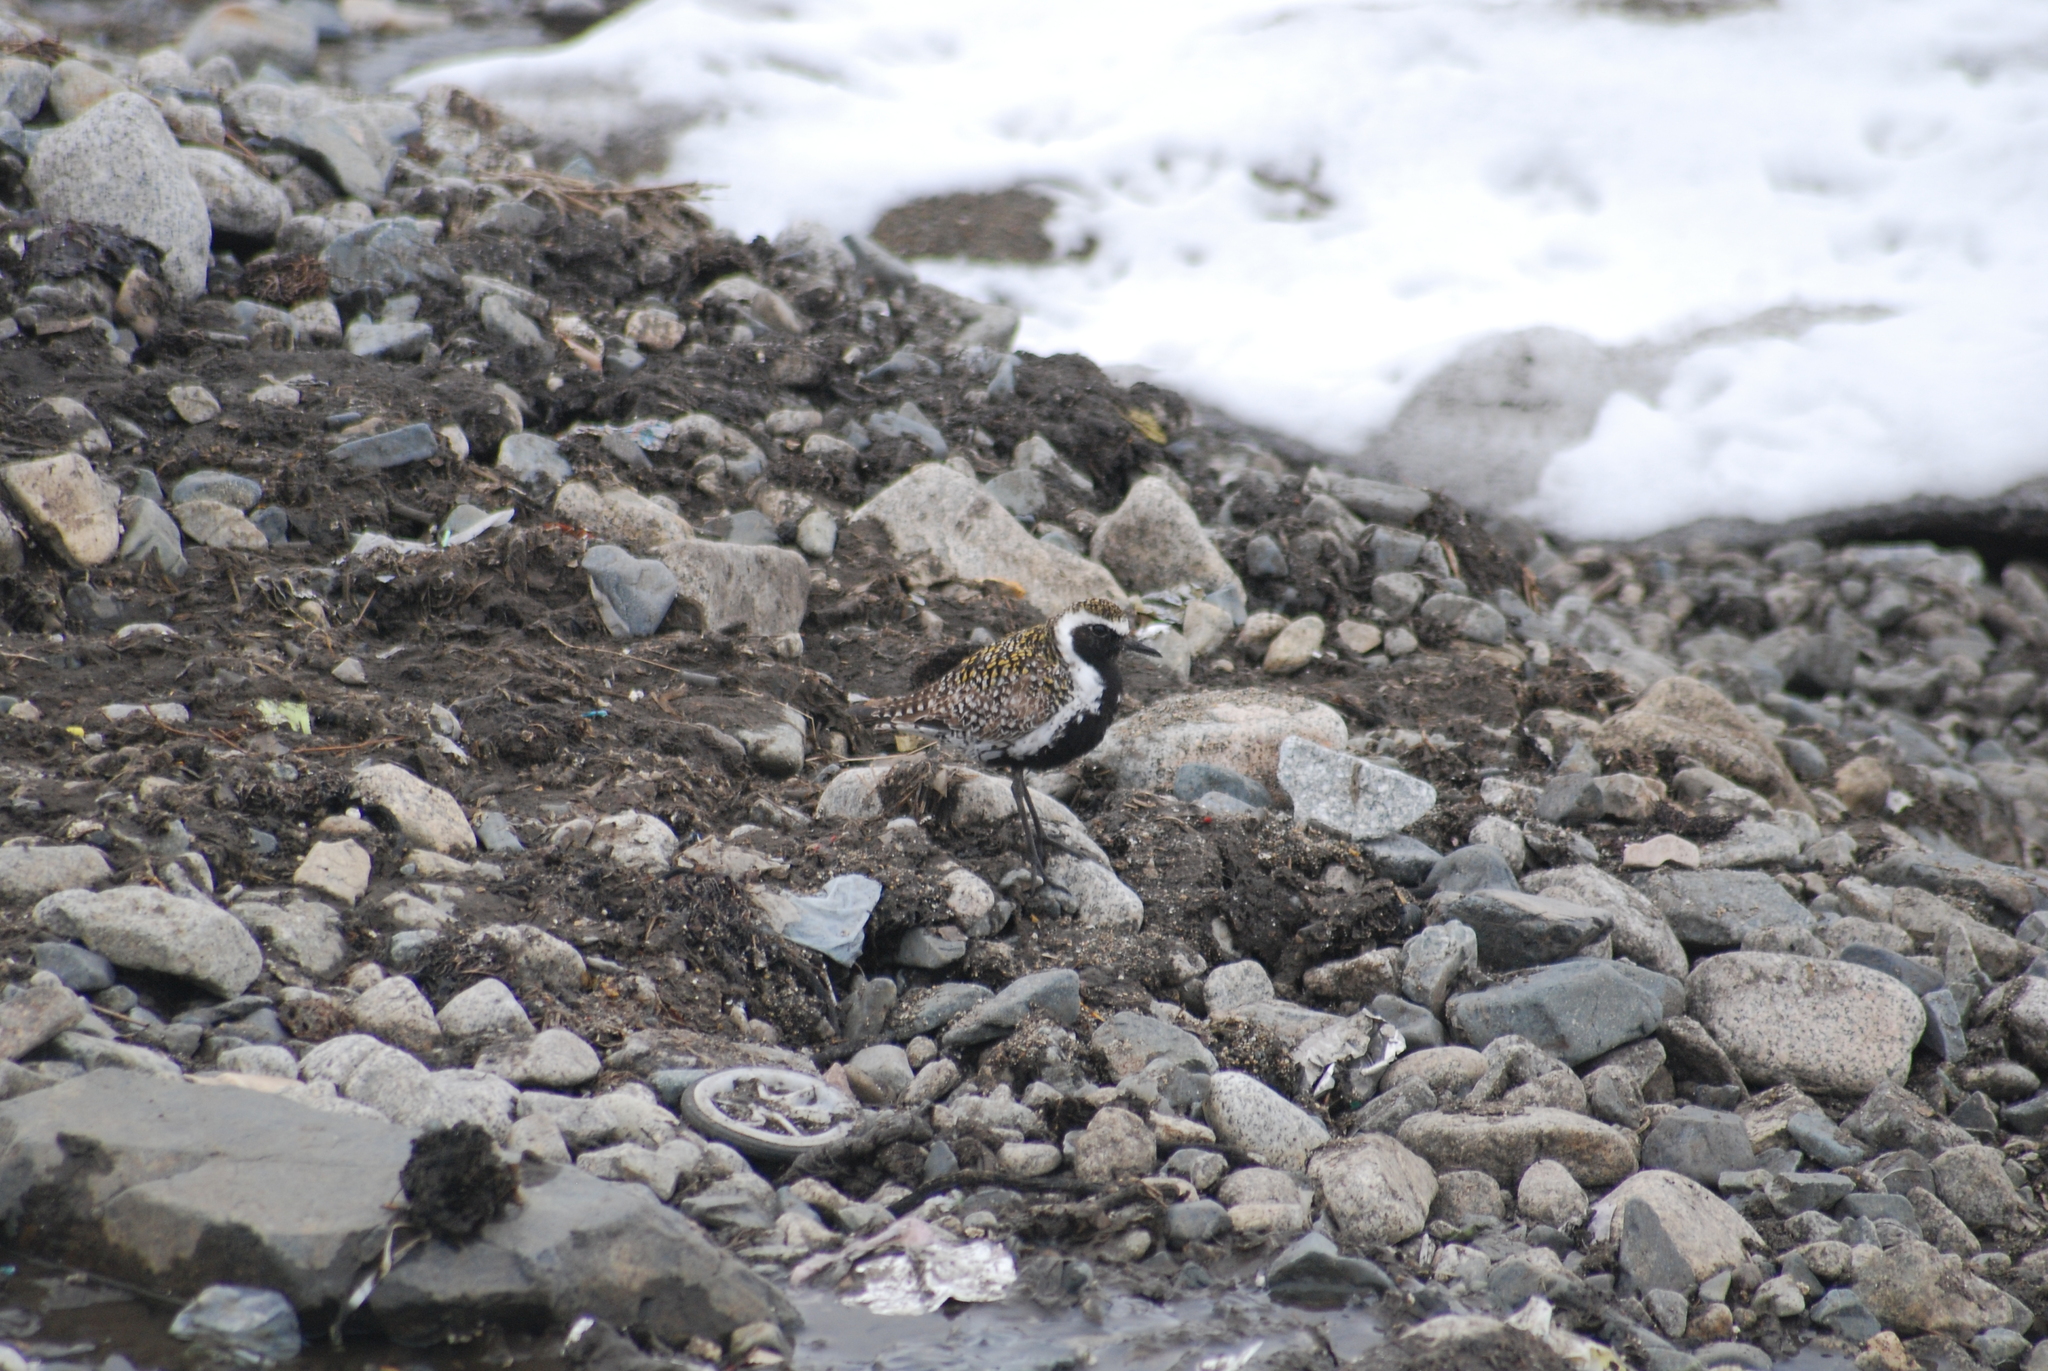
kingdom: Animalia
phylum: Chordata
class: Aves
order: Charadriiformes
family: Charadriidae
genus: Pluvialis
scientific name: Pluvialis fulva
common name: Pacific golden plover
